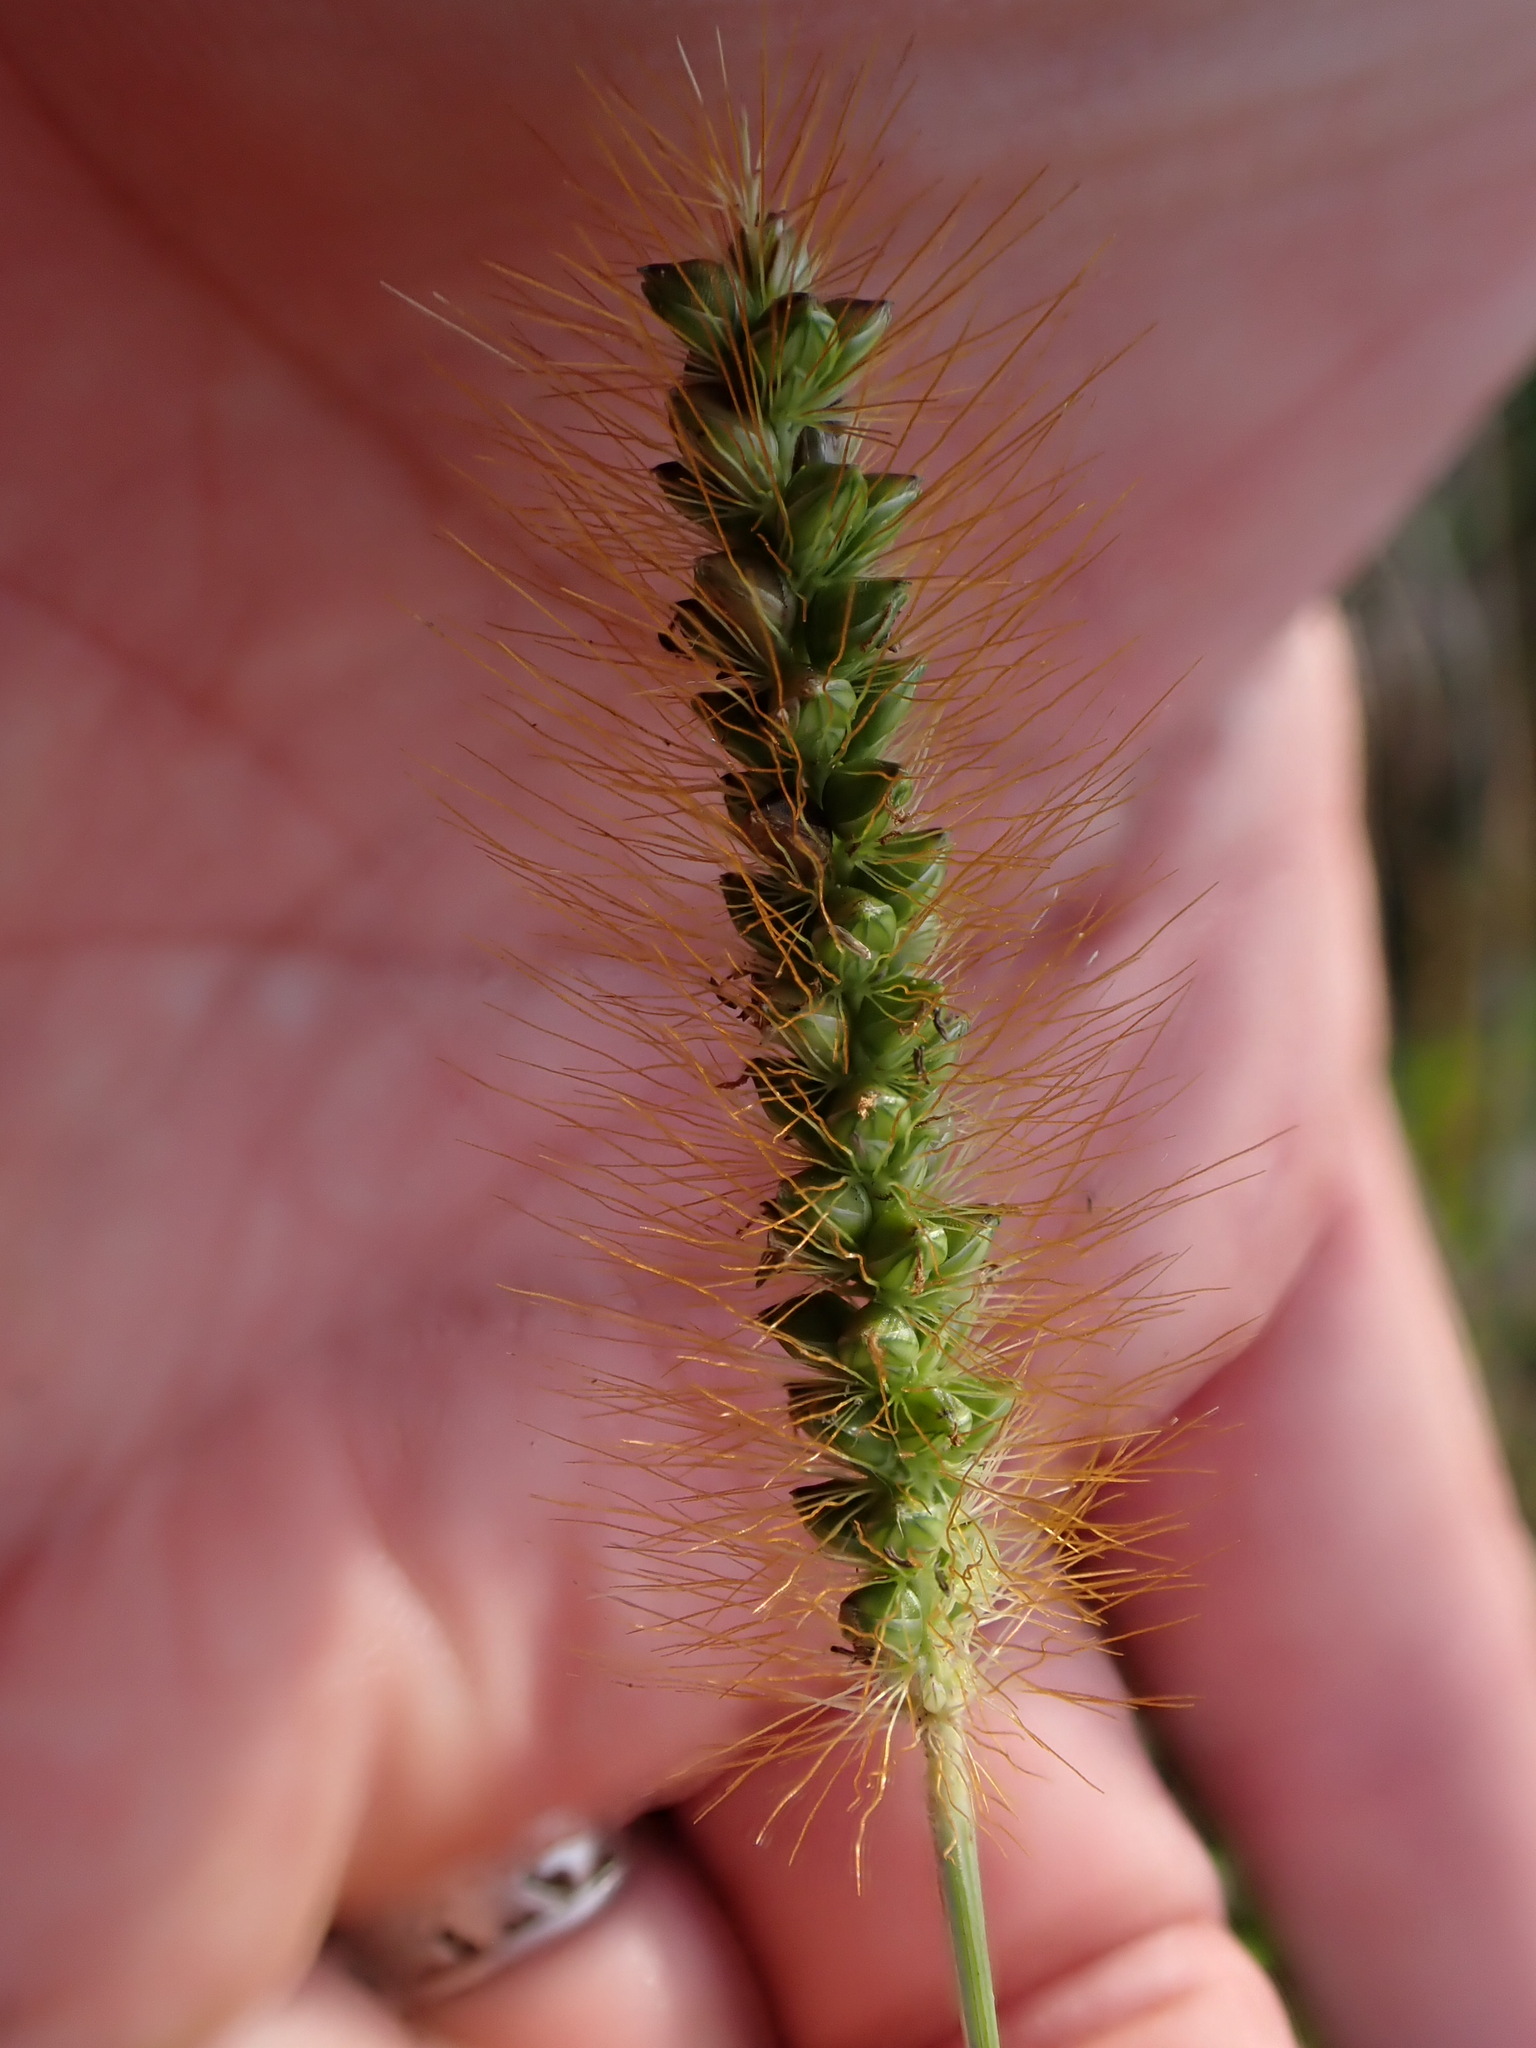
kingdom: Plantae
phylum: Tracheophyta
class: Liliopsida
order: Poales
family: Poaceae
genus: Setaria
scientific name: Setaria pumila
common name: Yellow bristle-grass
